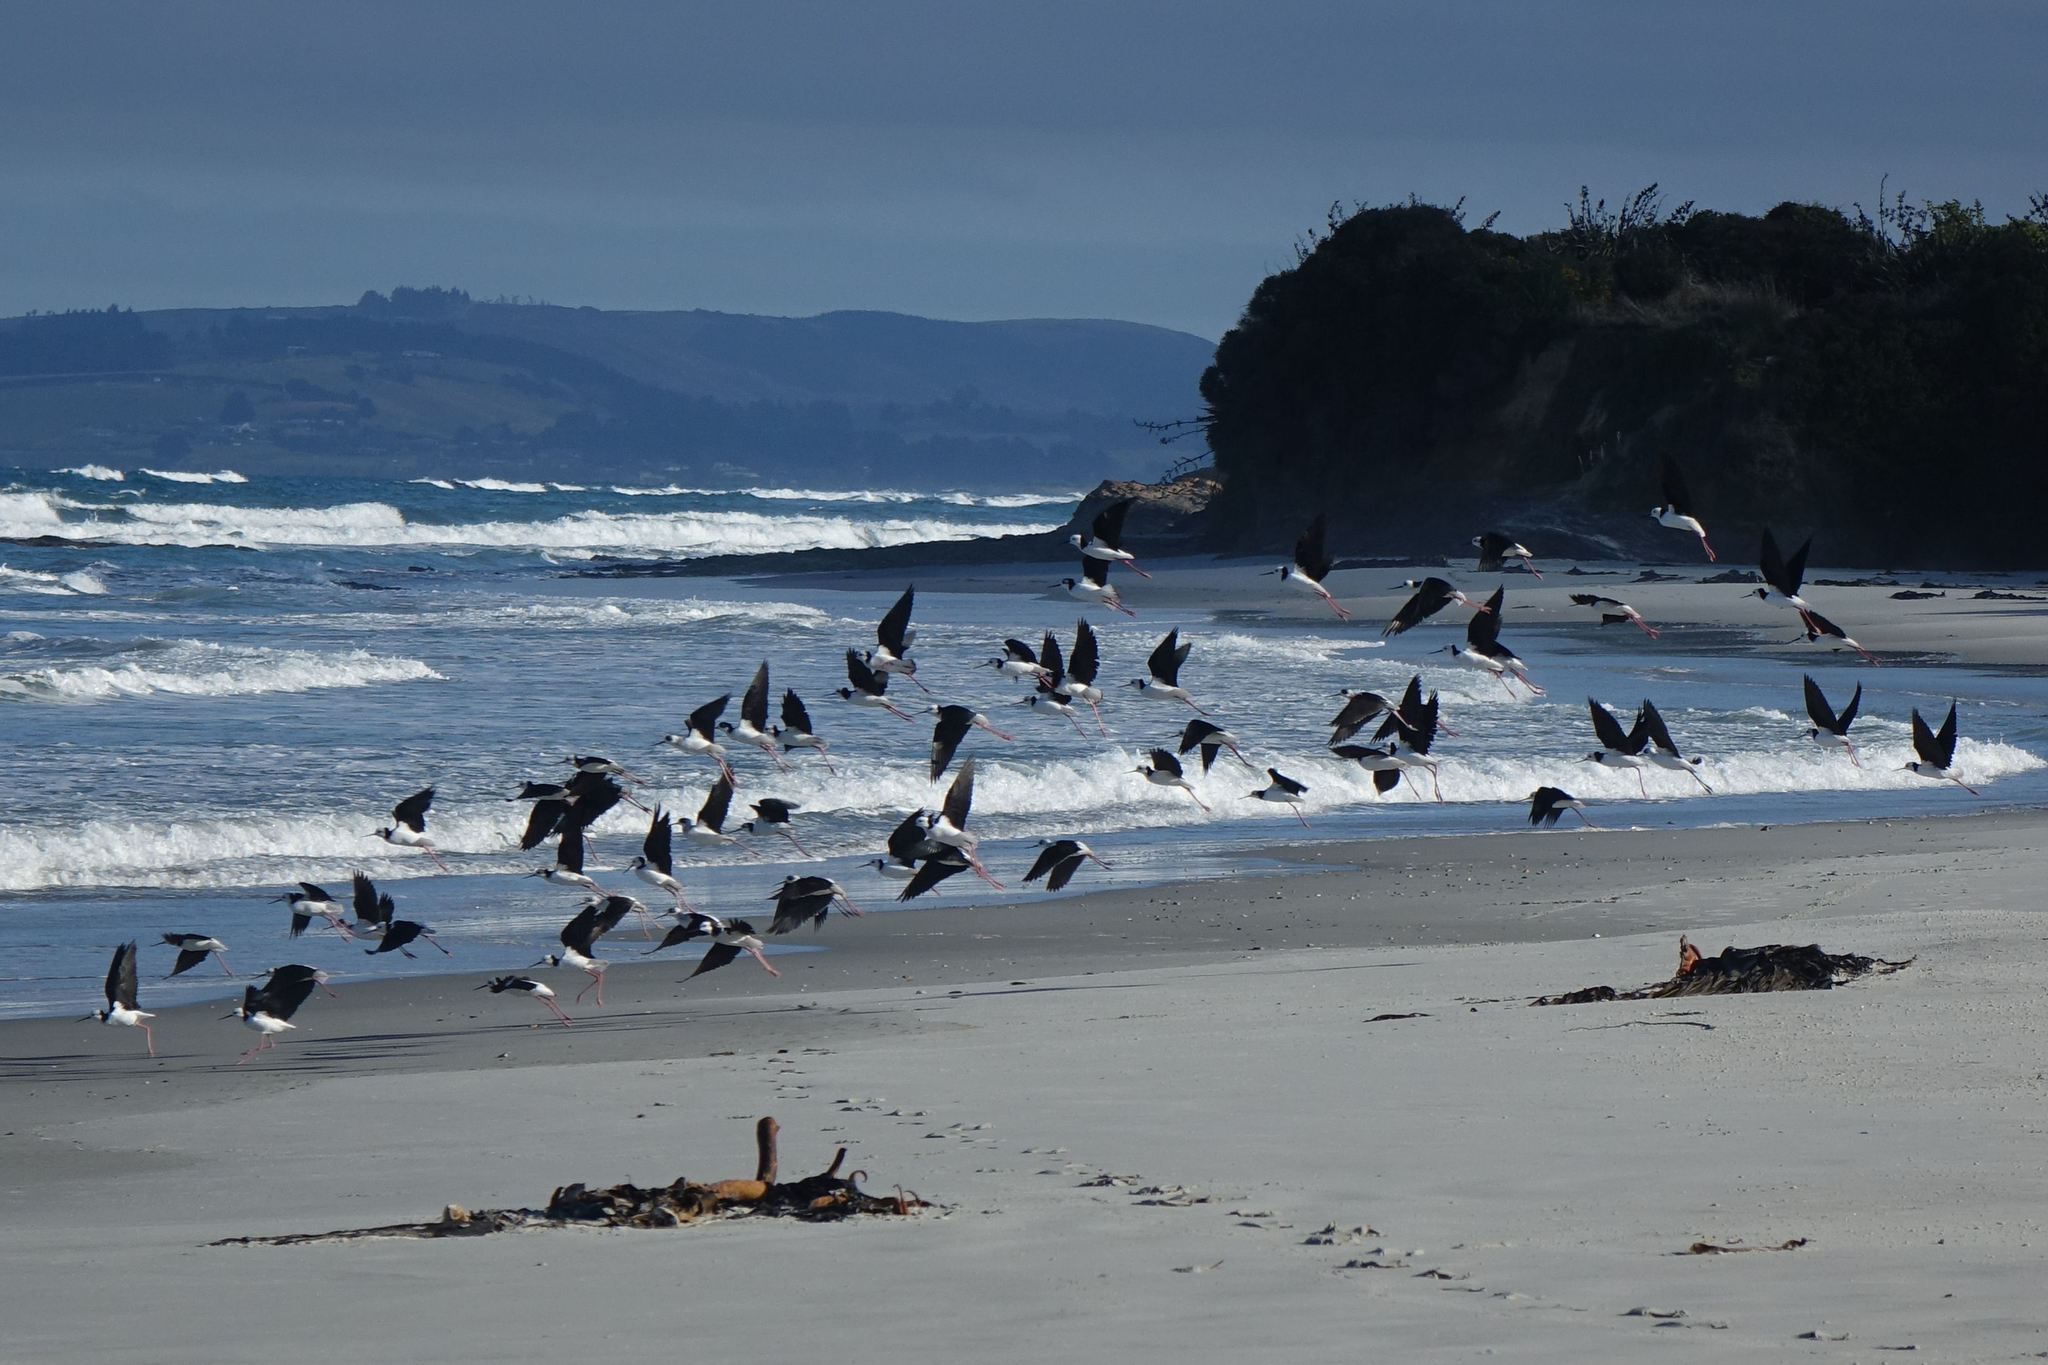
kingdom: Animalia
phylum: Chordata
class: Aves
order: Charadriiformes
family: Recurvirostridae
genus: Himantopus
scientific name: Himantopus leucocephalus
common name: White-headed stilt
